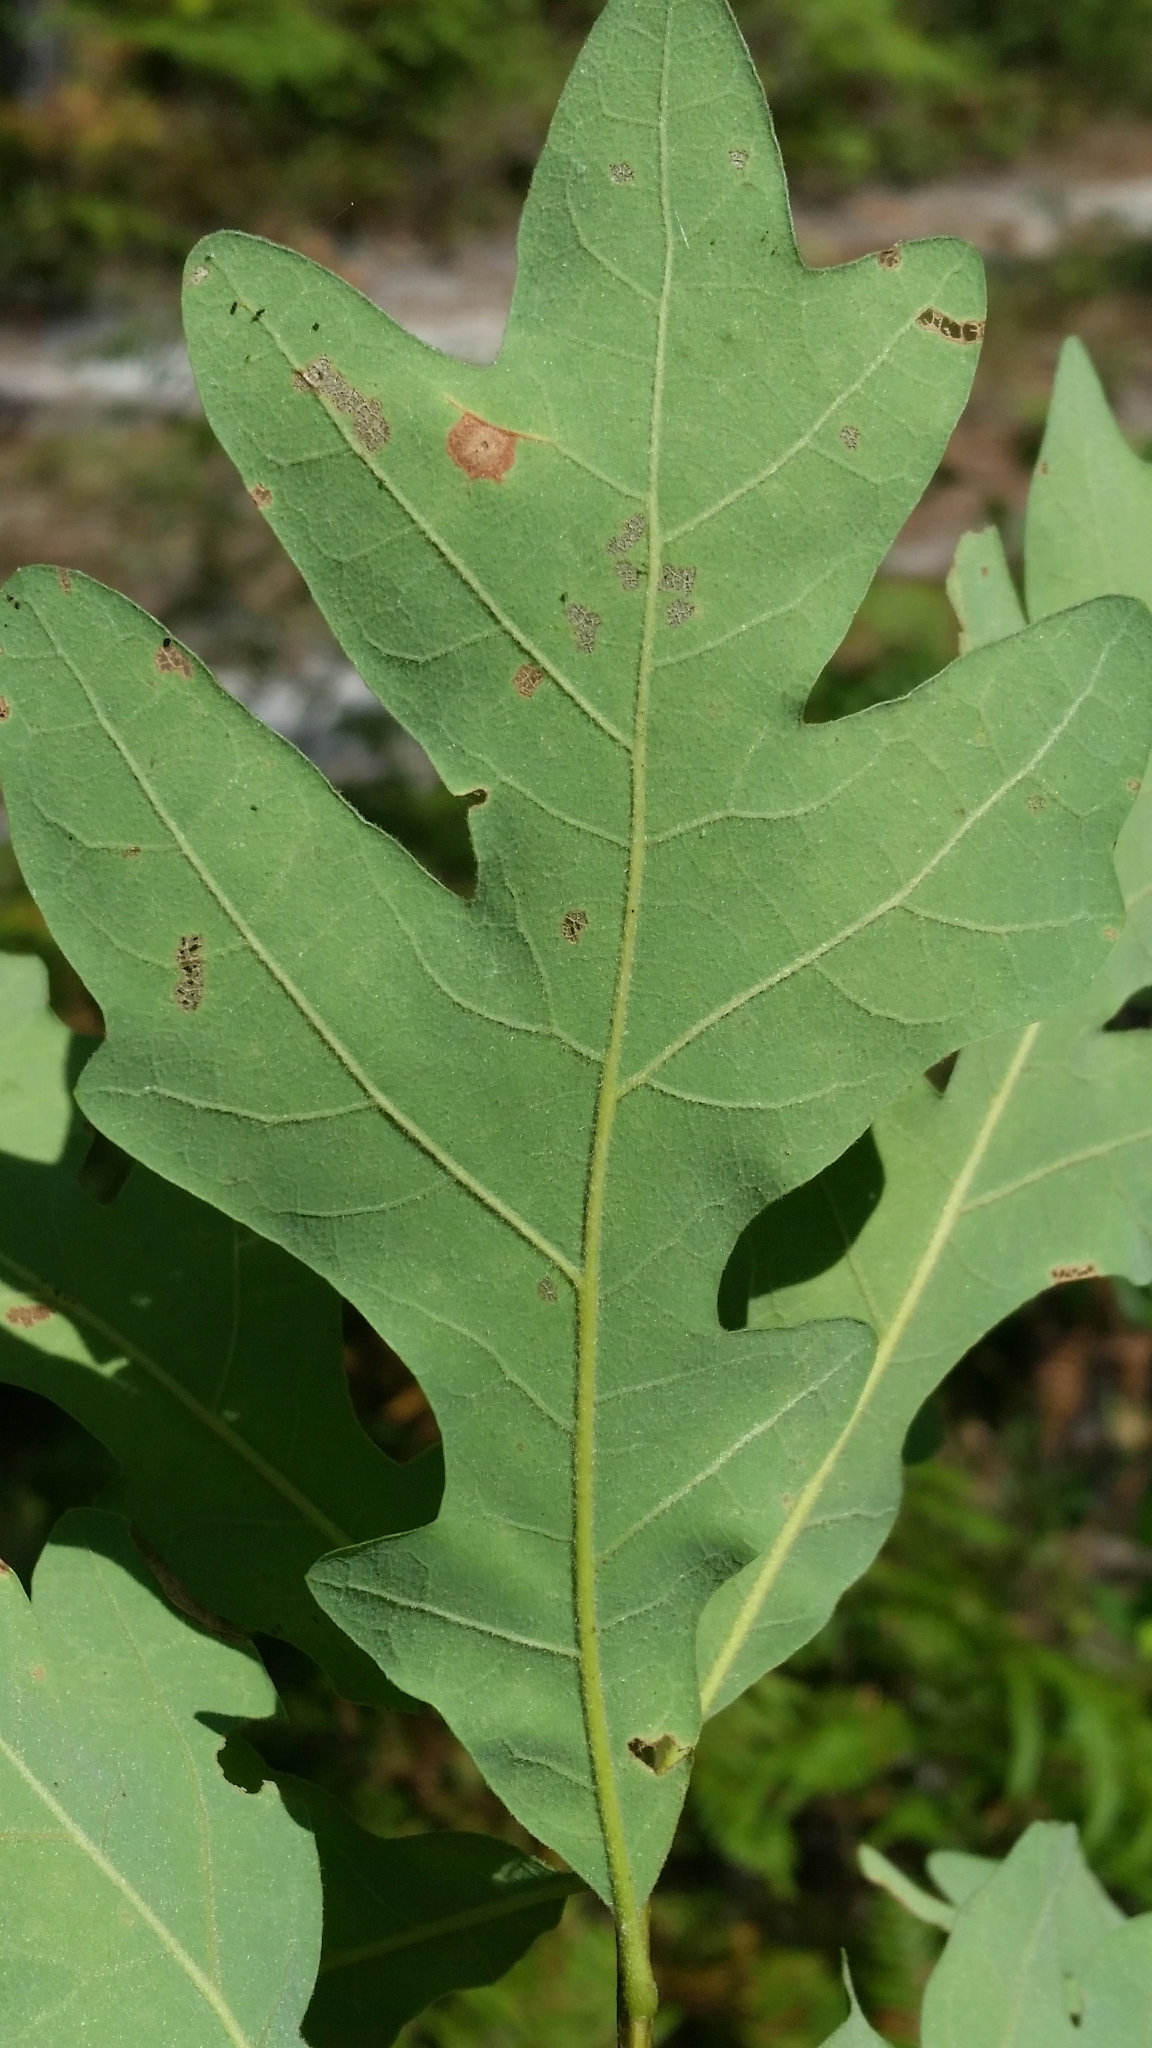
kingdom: Plantae
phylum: Tracheophyta
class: Magnoliopsida
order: Fagales
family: Fagaceae
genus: Quercus
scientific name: Quercus margaretiae
